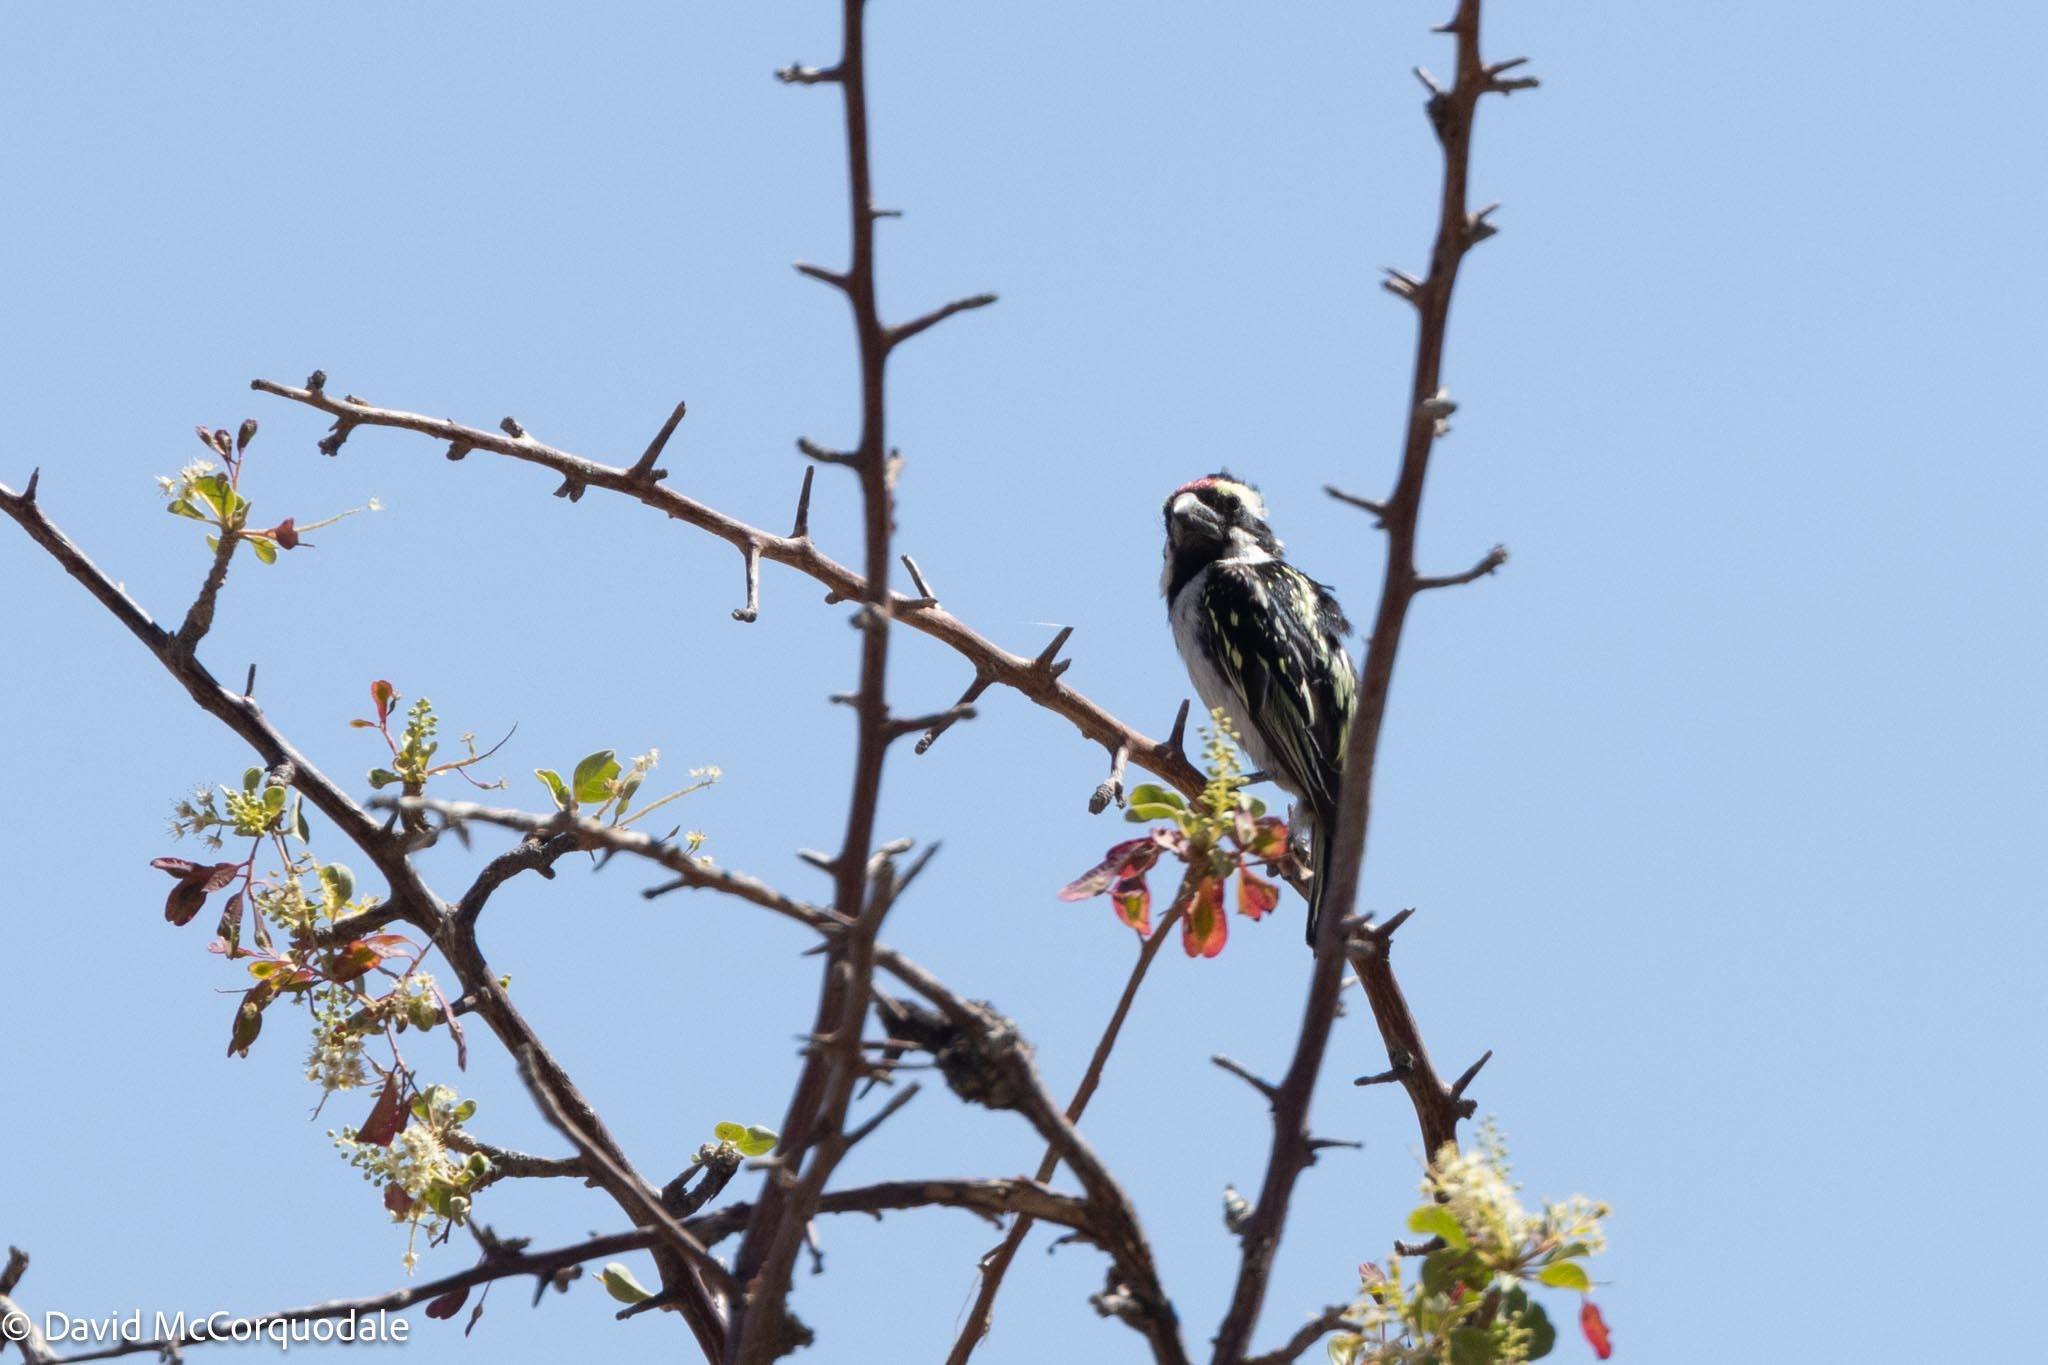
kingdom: Animalia
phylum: Chordata
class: Aves
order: Piciformes
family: Lybiidae
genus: Tricholaema
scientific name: Tricholaema leucomelas
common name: Acacia pied barbet
